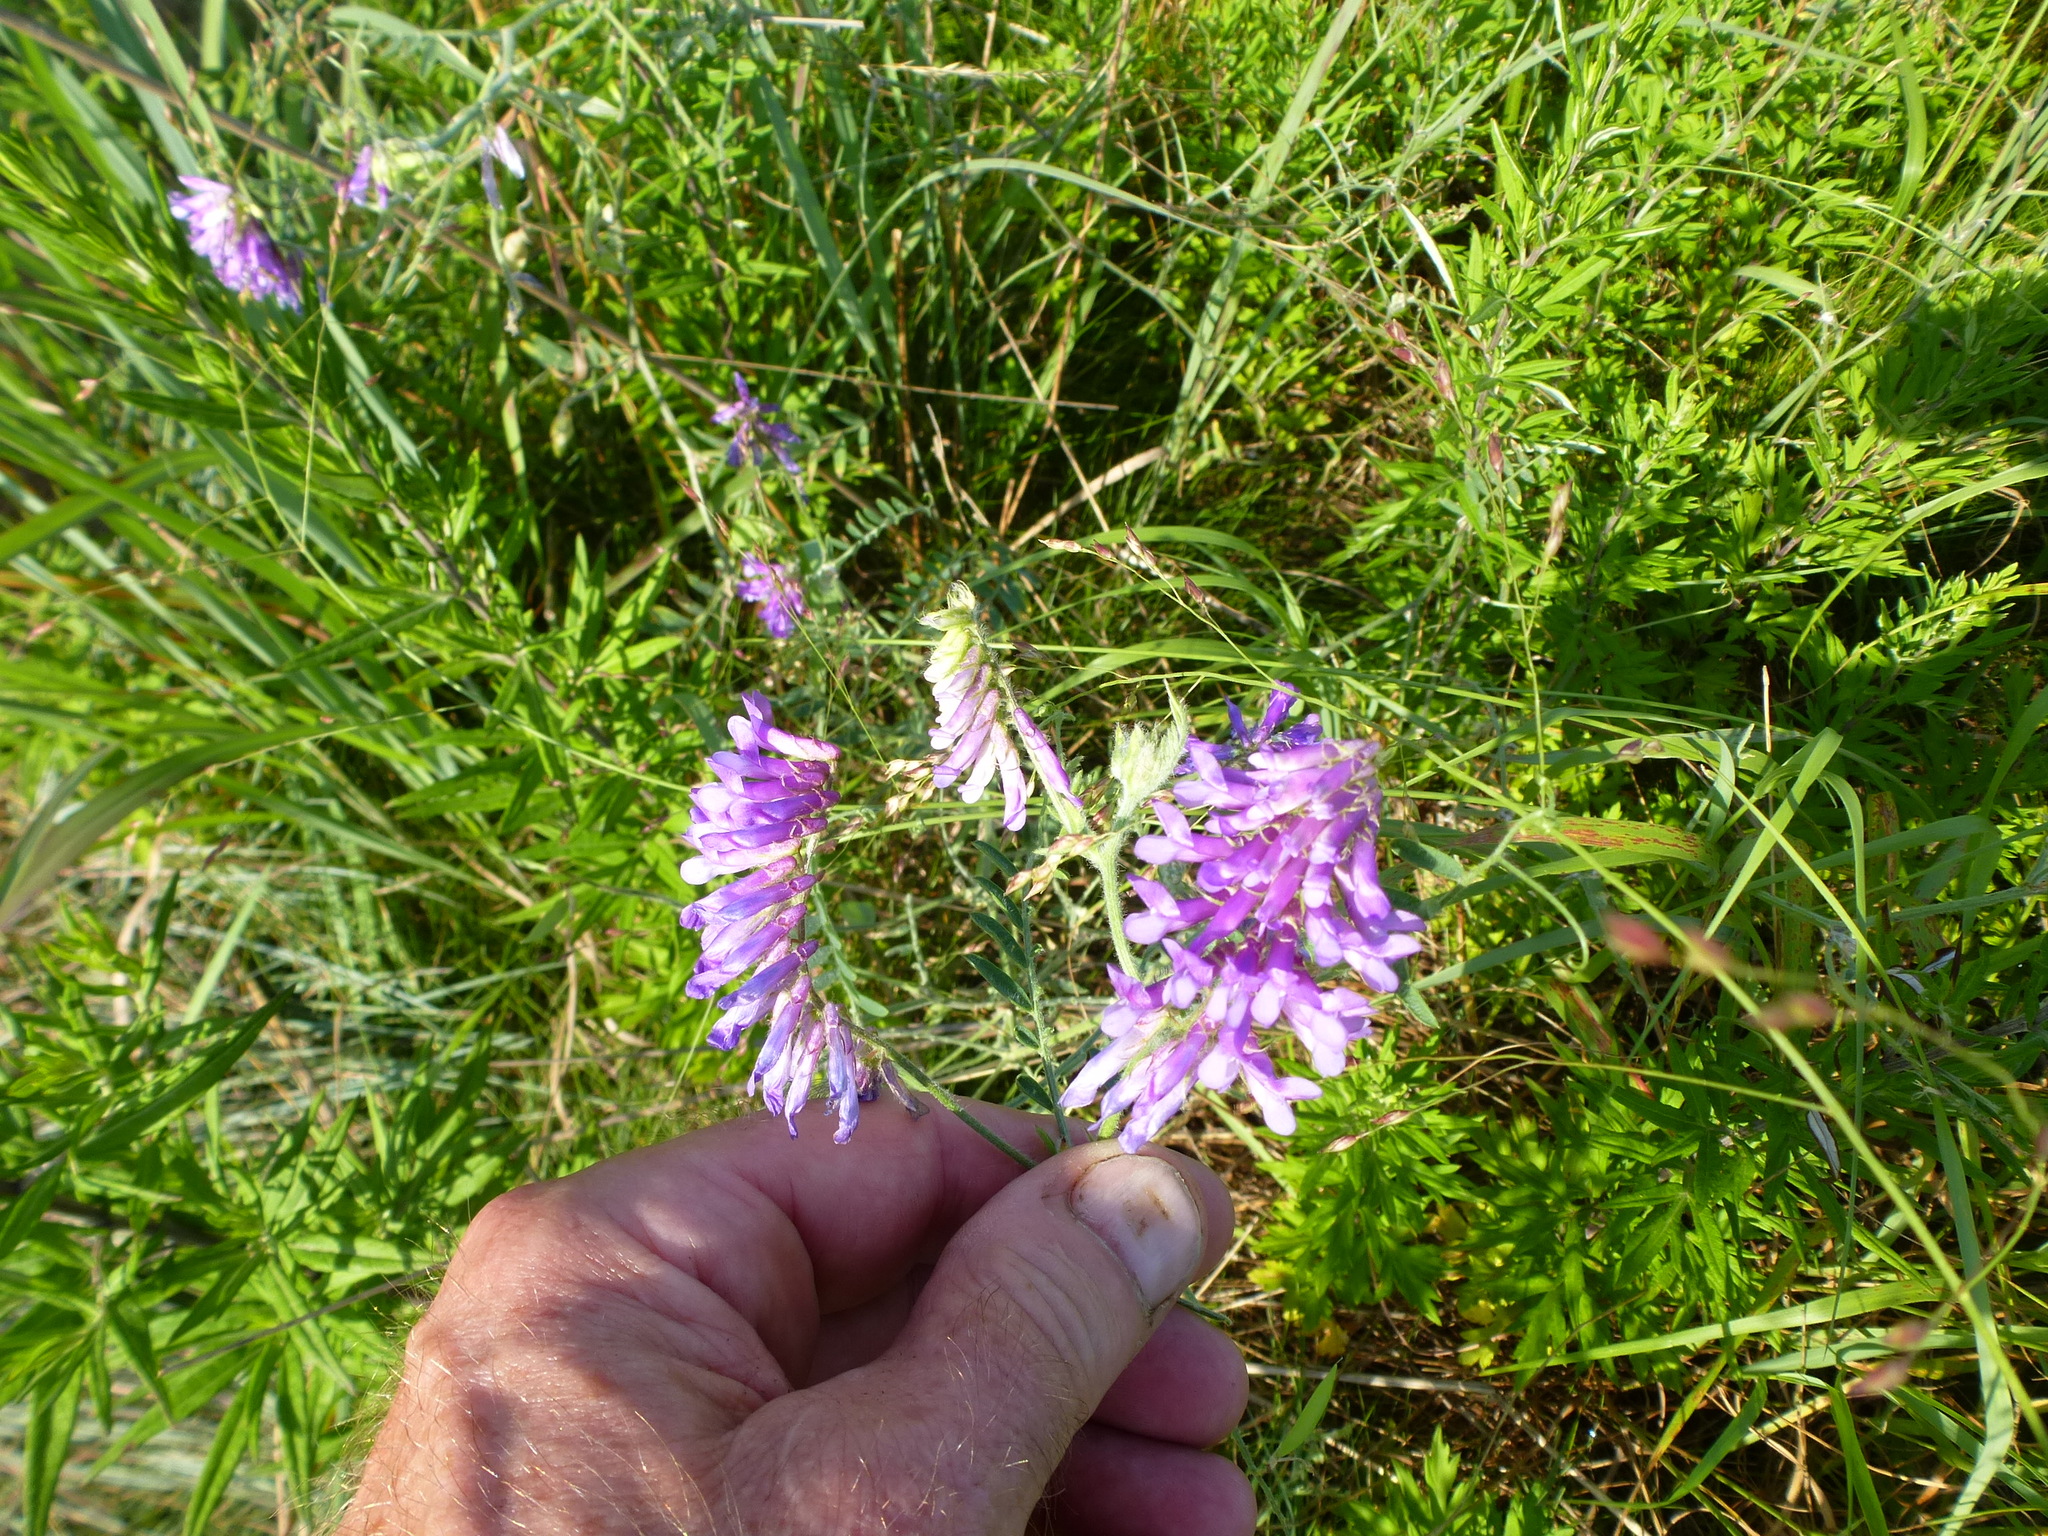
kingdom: Plantae
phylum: Tracheophyta
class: Magnoliopsida
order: Fabales
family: Fabaceae
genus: Vicia
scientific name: Vicia villosa
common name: Fodder vetch
